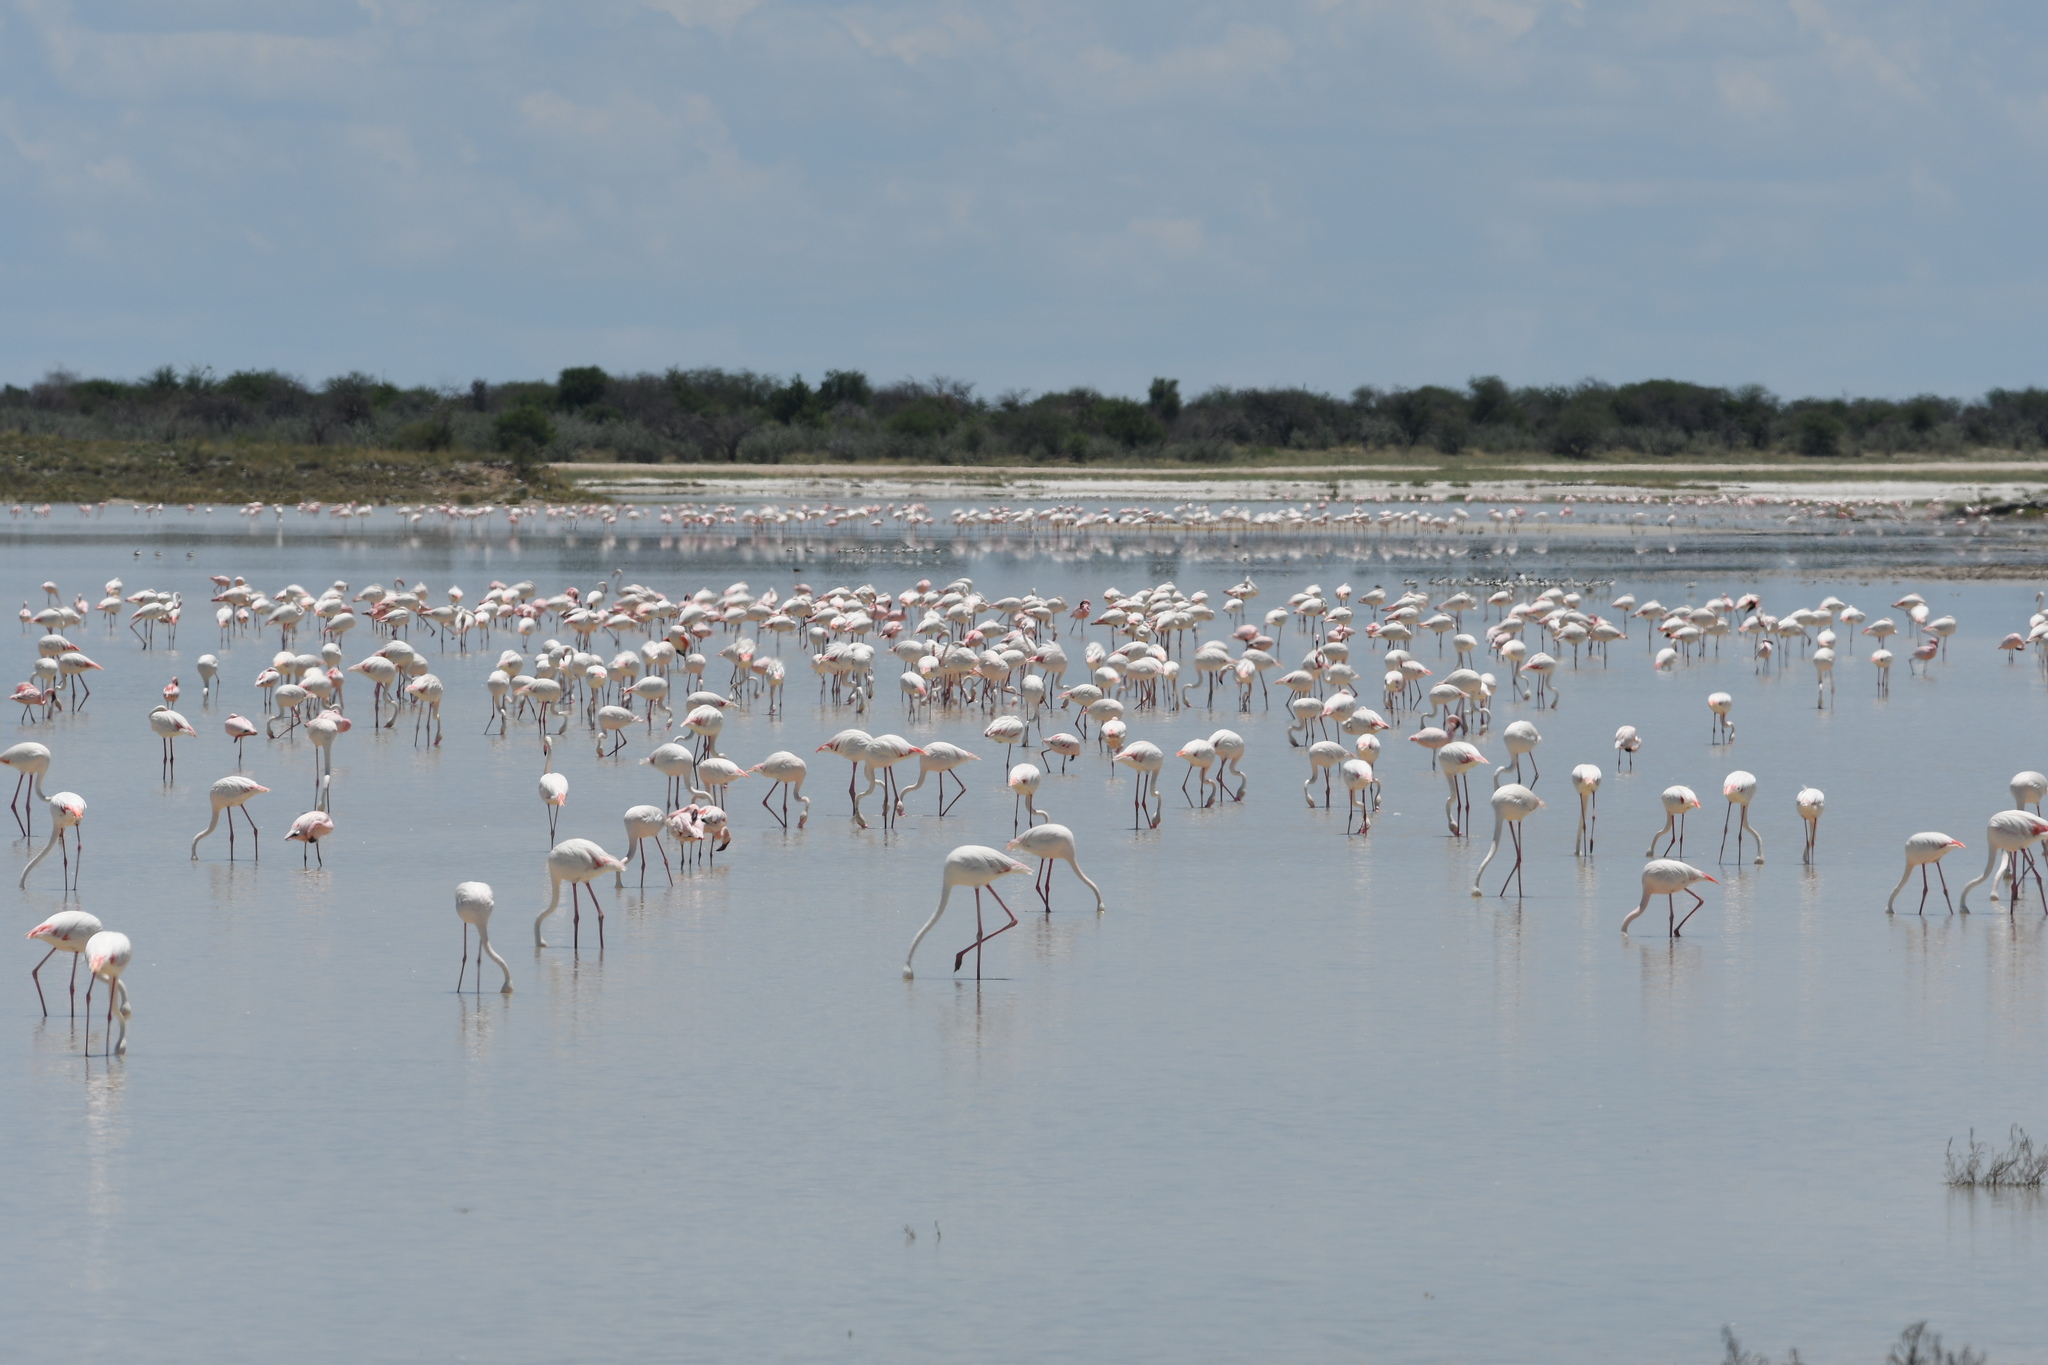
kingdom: Animalia
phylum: Chordata
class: Aves
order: Phoenicopteriformes
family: Phoenicopteridae
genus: Phoenicopterus
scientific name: Phoenicopterus roseus
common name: Greater flamingo
